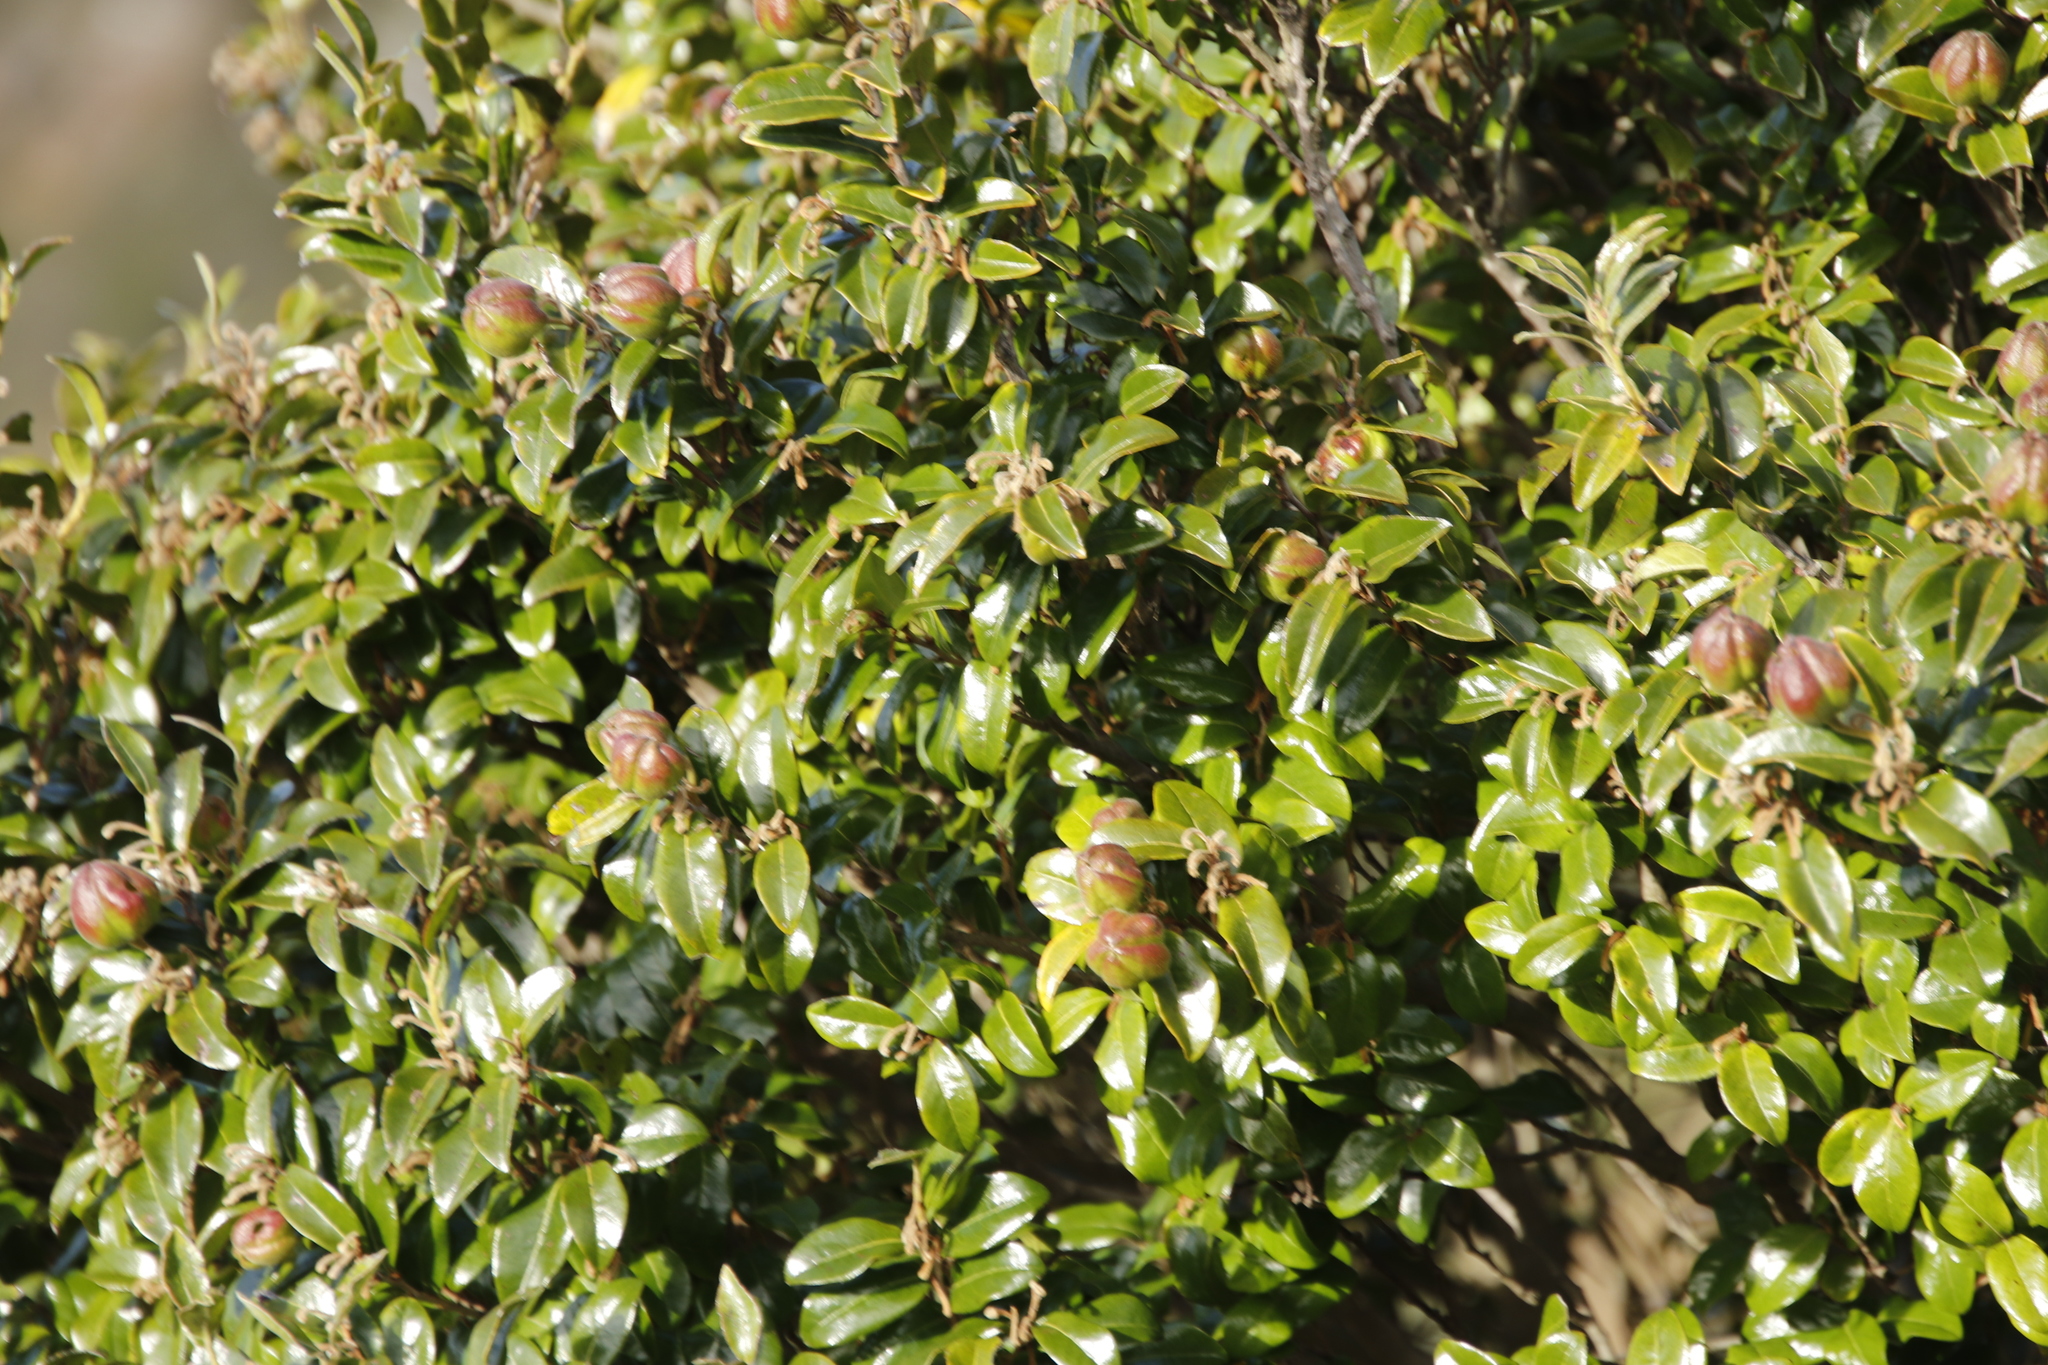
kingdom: Plantae
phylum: Tracheophyta
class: Magnoliopsida
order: Ericales
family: Ebenaceae
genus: Diospyros
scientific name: Diospyros whyteana
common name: Bladder-nut
